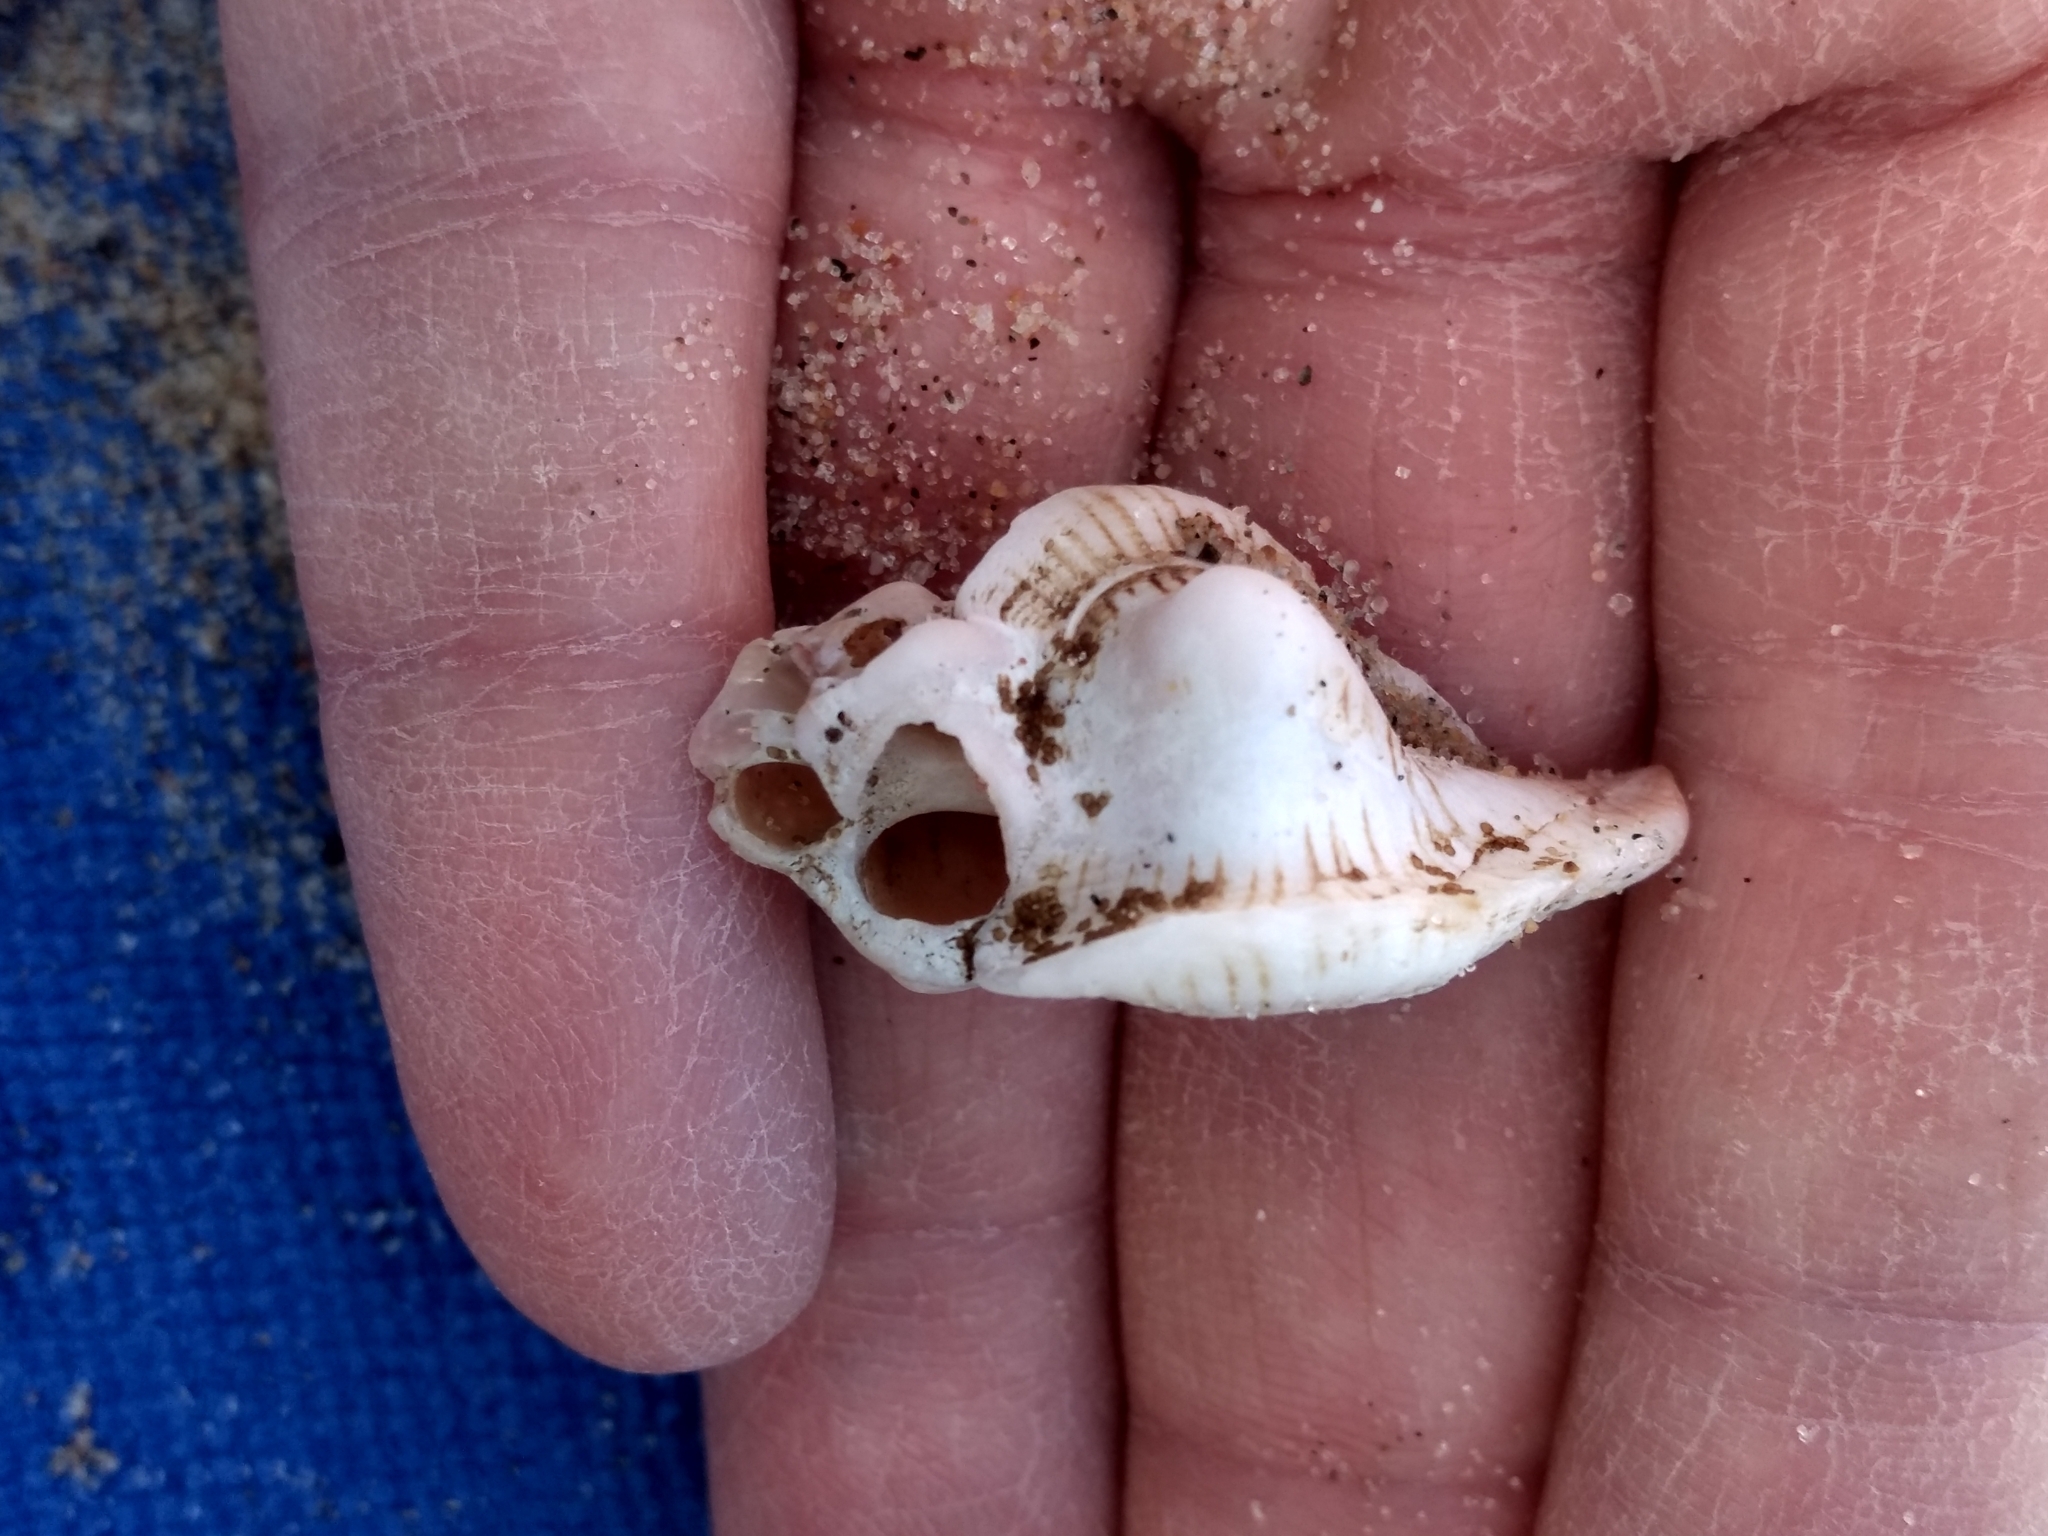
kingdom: Animalia
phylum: Mollusca
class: Gastropoda
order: Neogastropoda
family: Muricidae
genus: Pteropurpura
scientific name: Pteropurpura festiva
